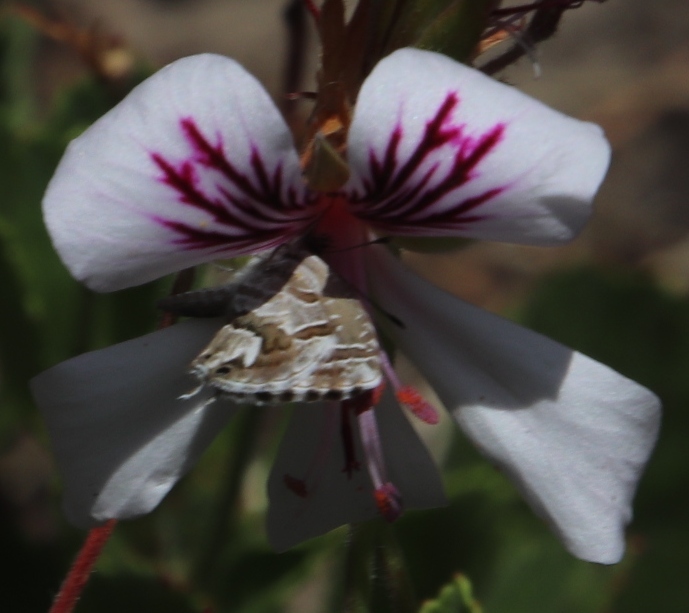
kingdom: Animalia
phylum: Arthropoda
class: Insecta
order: Lepidoptera
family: Lycaenidae
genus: Cacyreus
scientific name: Cacyreus marshalli
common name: Geranium bronze
